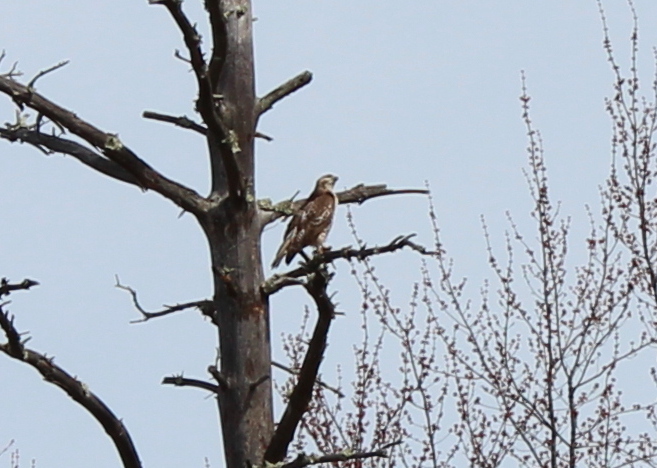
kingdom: Animalia
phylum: Chordata
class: Aves
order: Accipitriformes
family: Accipitridae
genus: Buteo
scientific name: Buteo jamaicensis
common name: Red-tailed hawk
